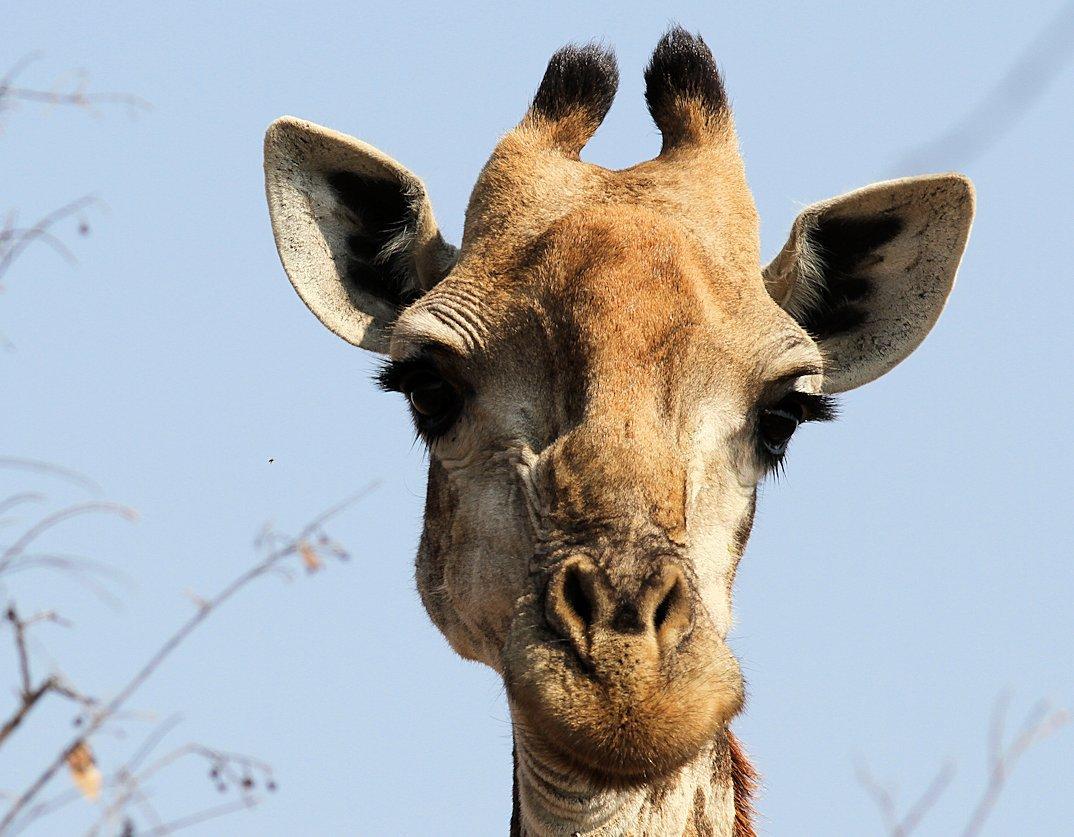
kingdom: Animalia
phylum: Chordata
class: Mammalia
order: Artiodactyla
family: Giraffidae
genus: Giraffa
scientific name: Giraffa giraffa
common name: Southern giraffe
